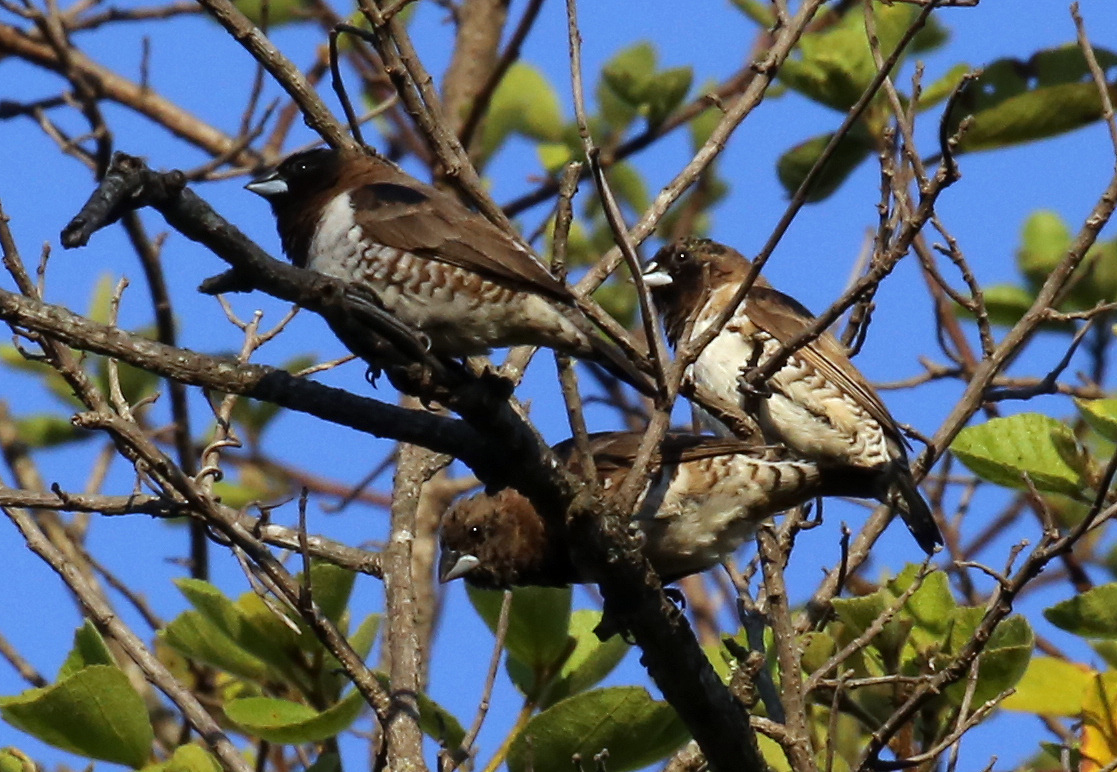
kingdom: Animalia
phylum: Chordata
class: Aves
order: Passeriformes
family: Estrildidae
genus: Lonchura
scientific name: Lonchura cucullata
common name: Bronze mannikin
